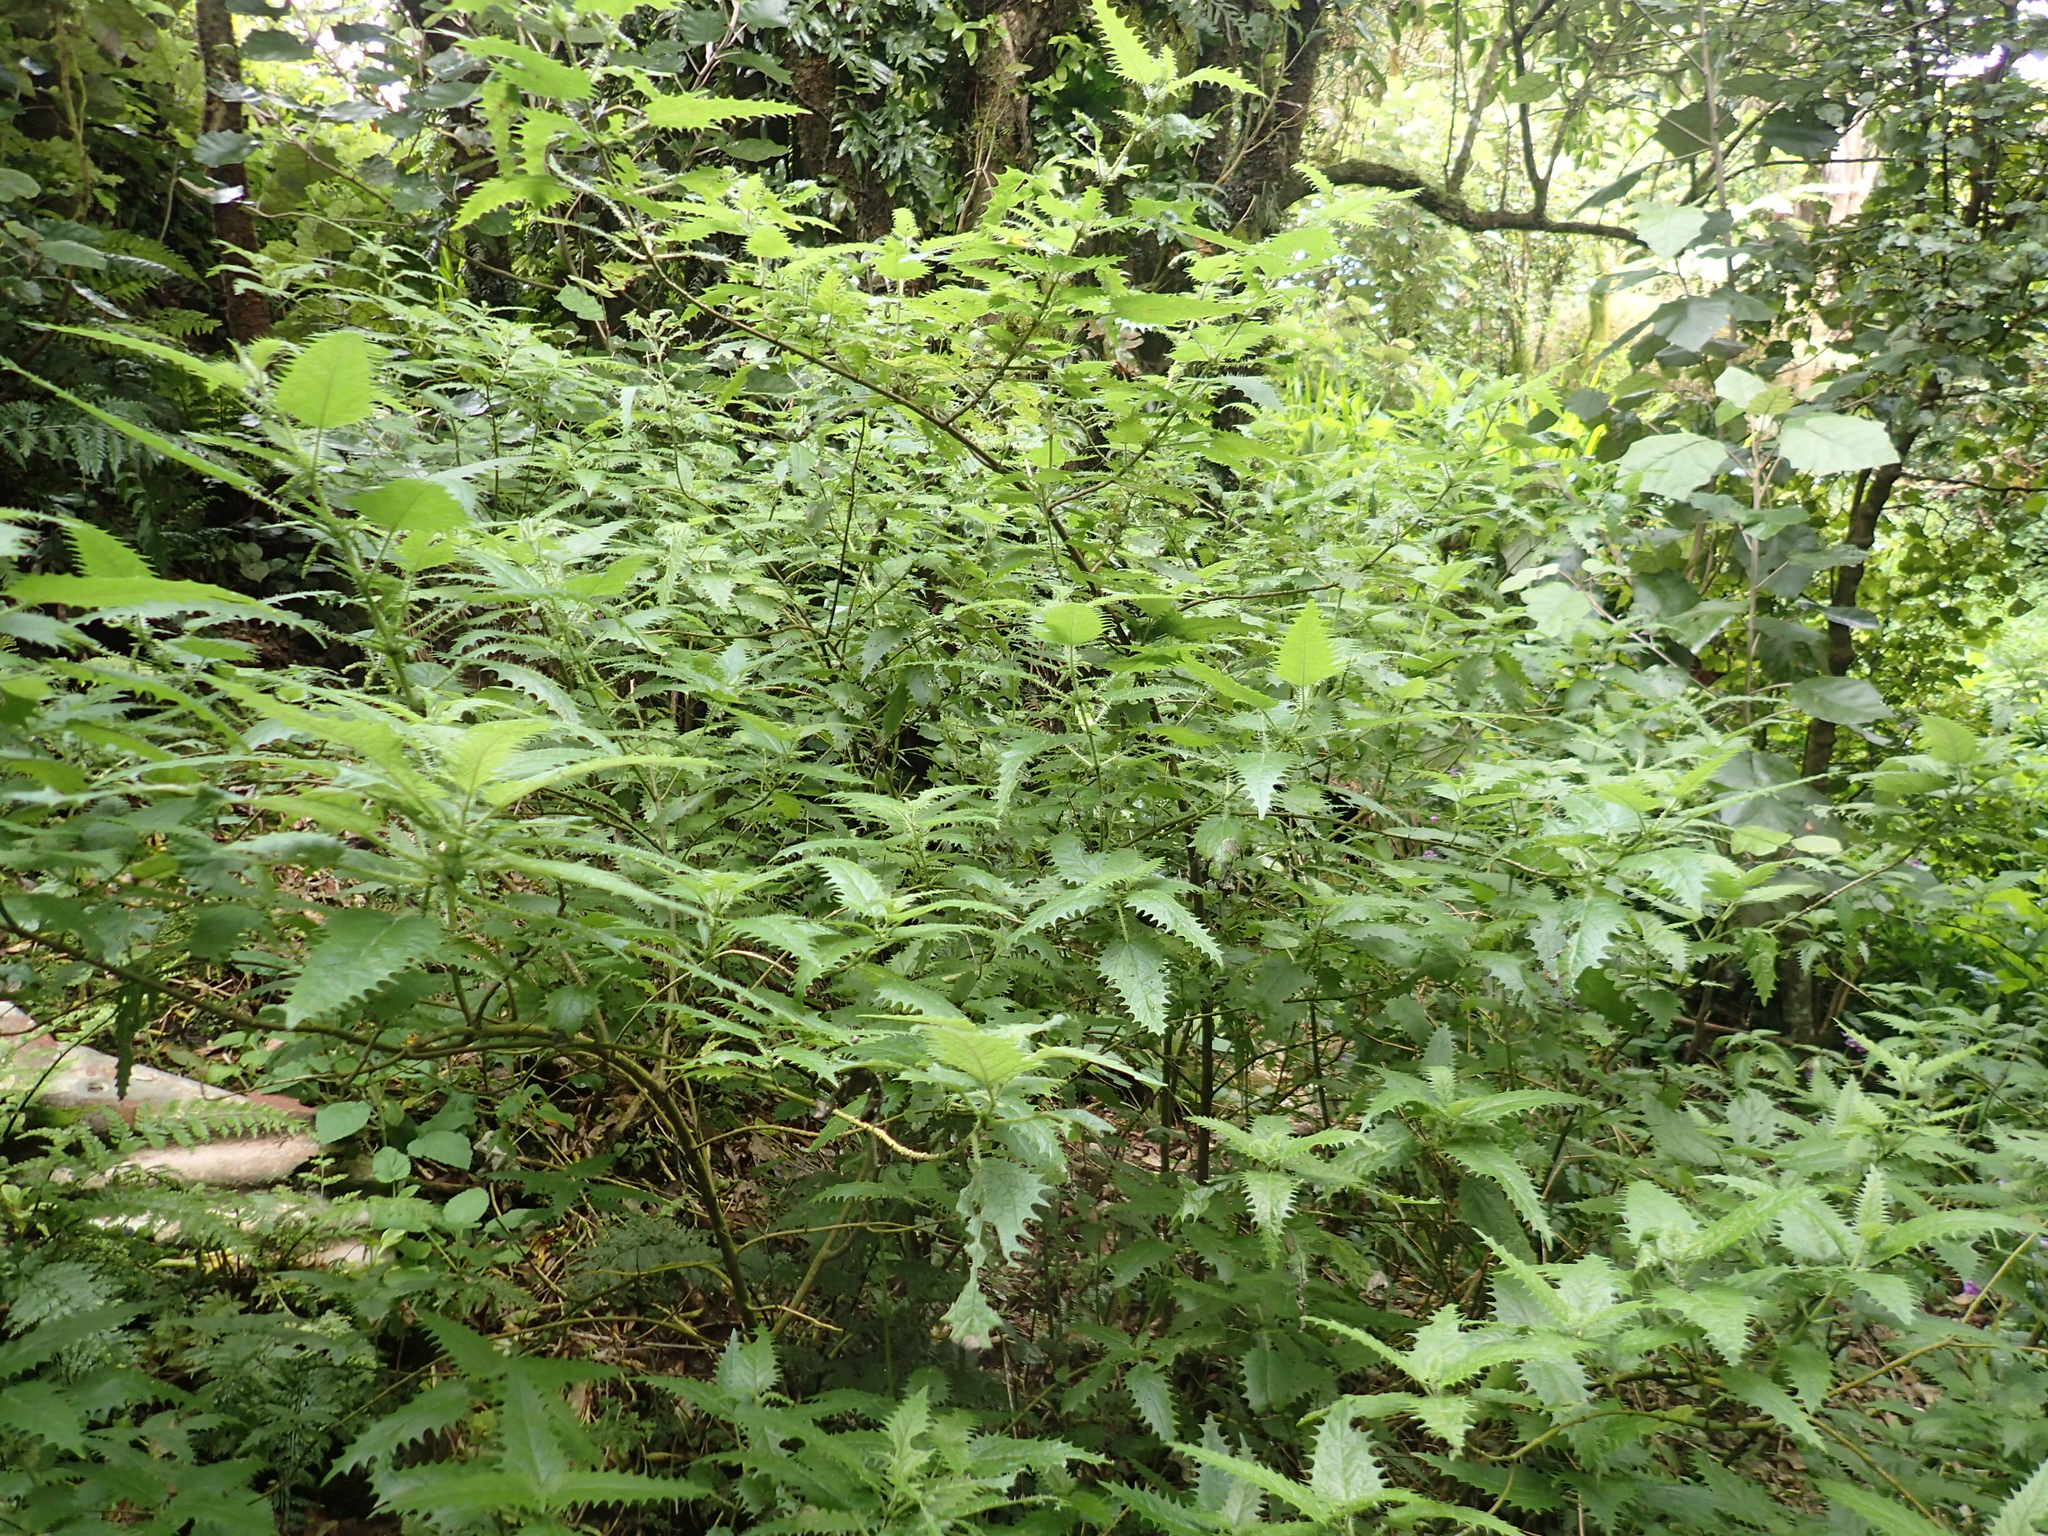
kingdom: Plantae
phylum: Tracheophyta
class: Magnoliopsida
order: Rosales
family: Urticaceae
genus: Urtica
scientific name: Urtica ferox
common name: Tree nettle
